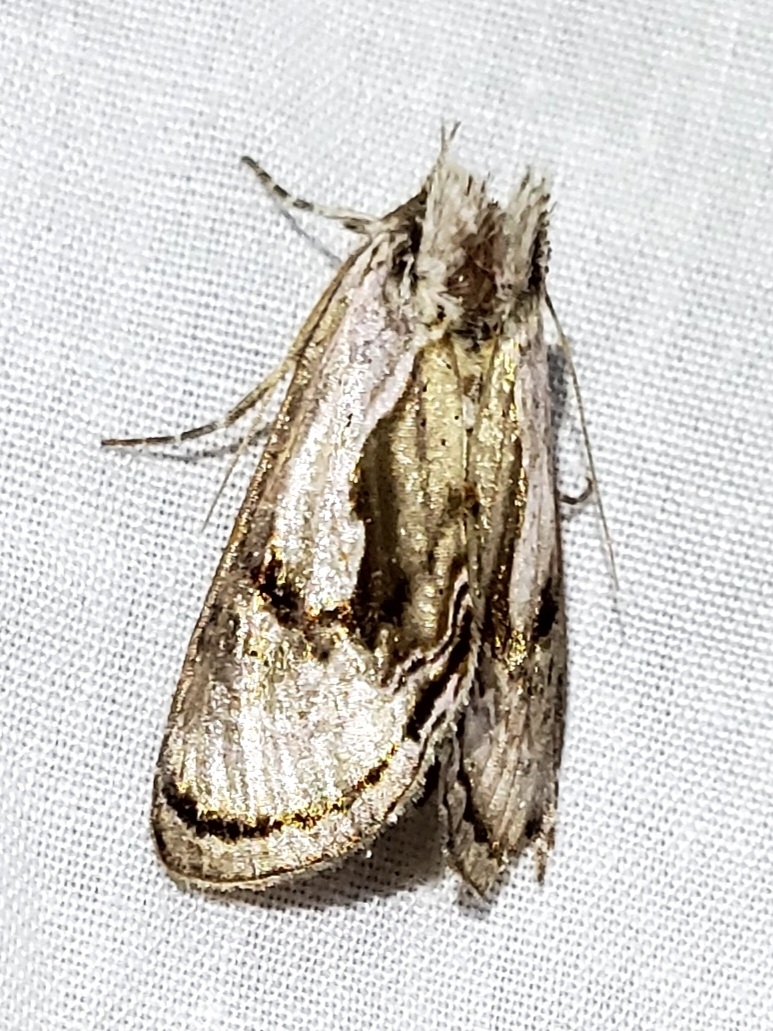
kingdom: Animalia
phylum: Arthropoda
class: Insecta
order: Lepidoptera
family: Noctuidae
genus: Chrysanympha
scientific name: Chrysanympha formosa
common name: Formosa looper moth
